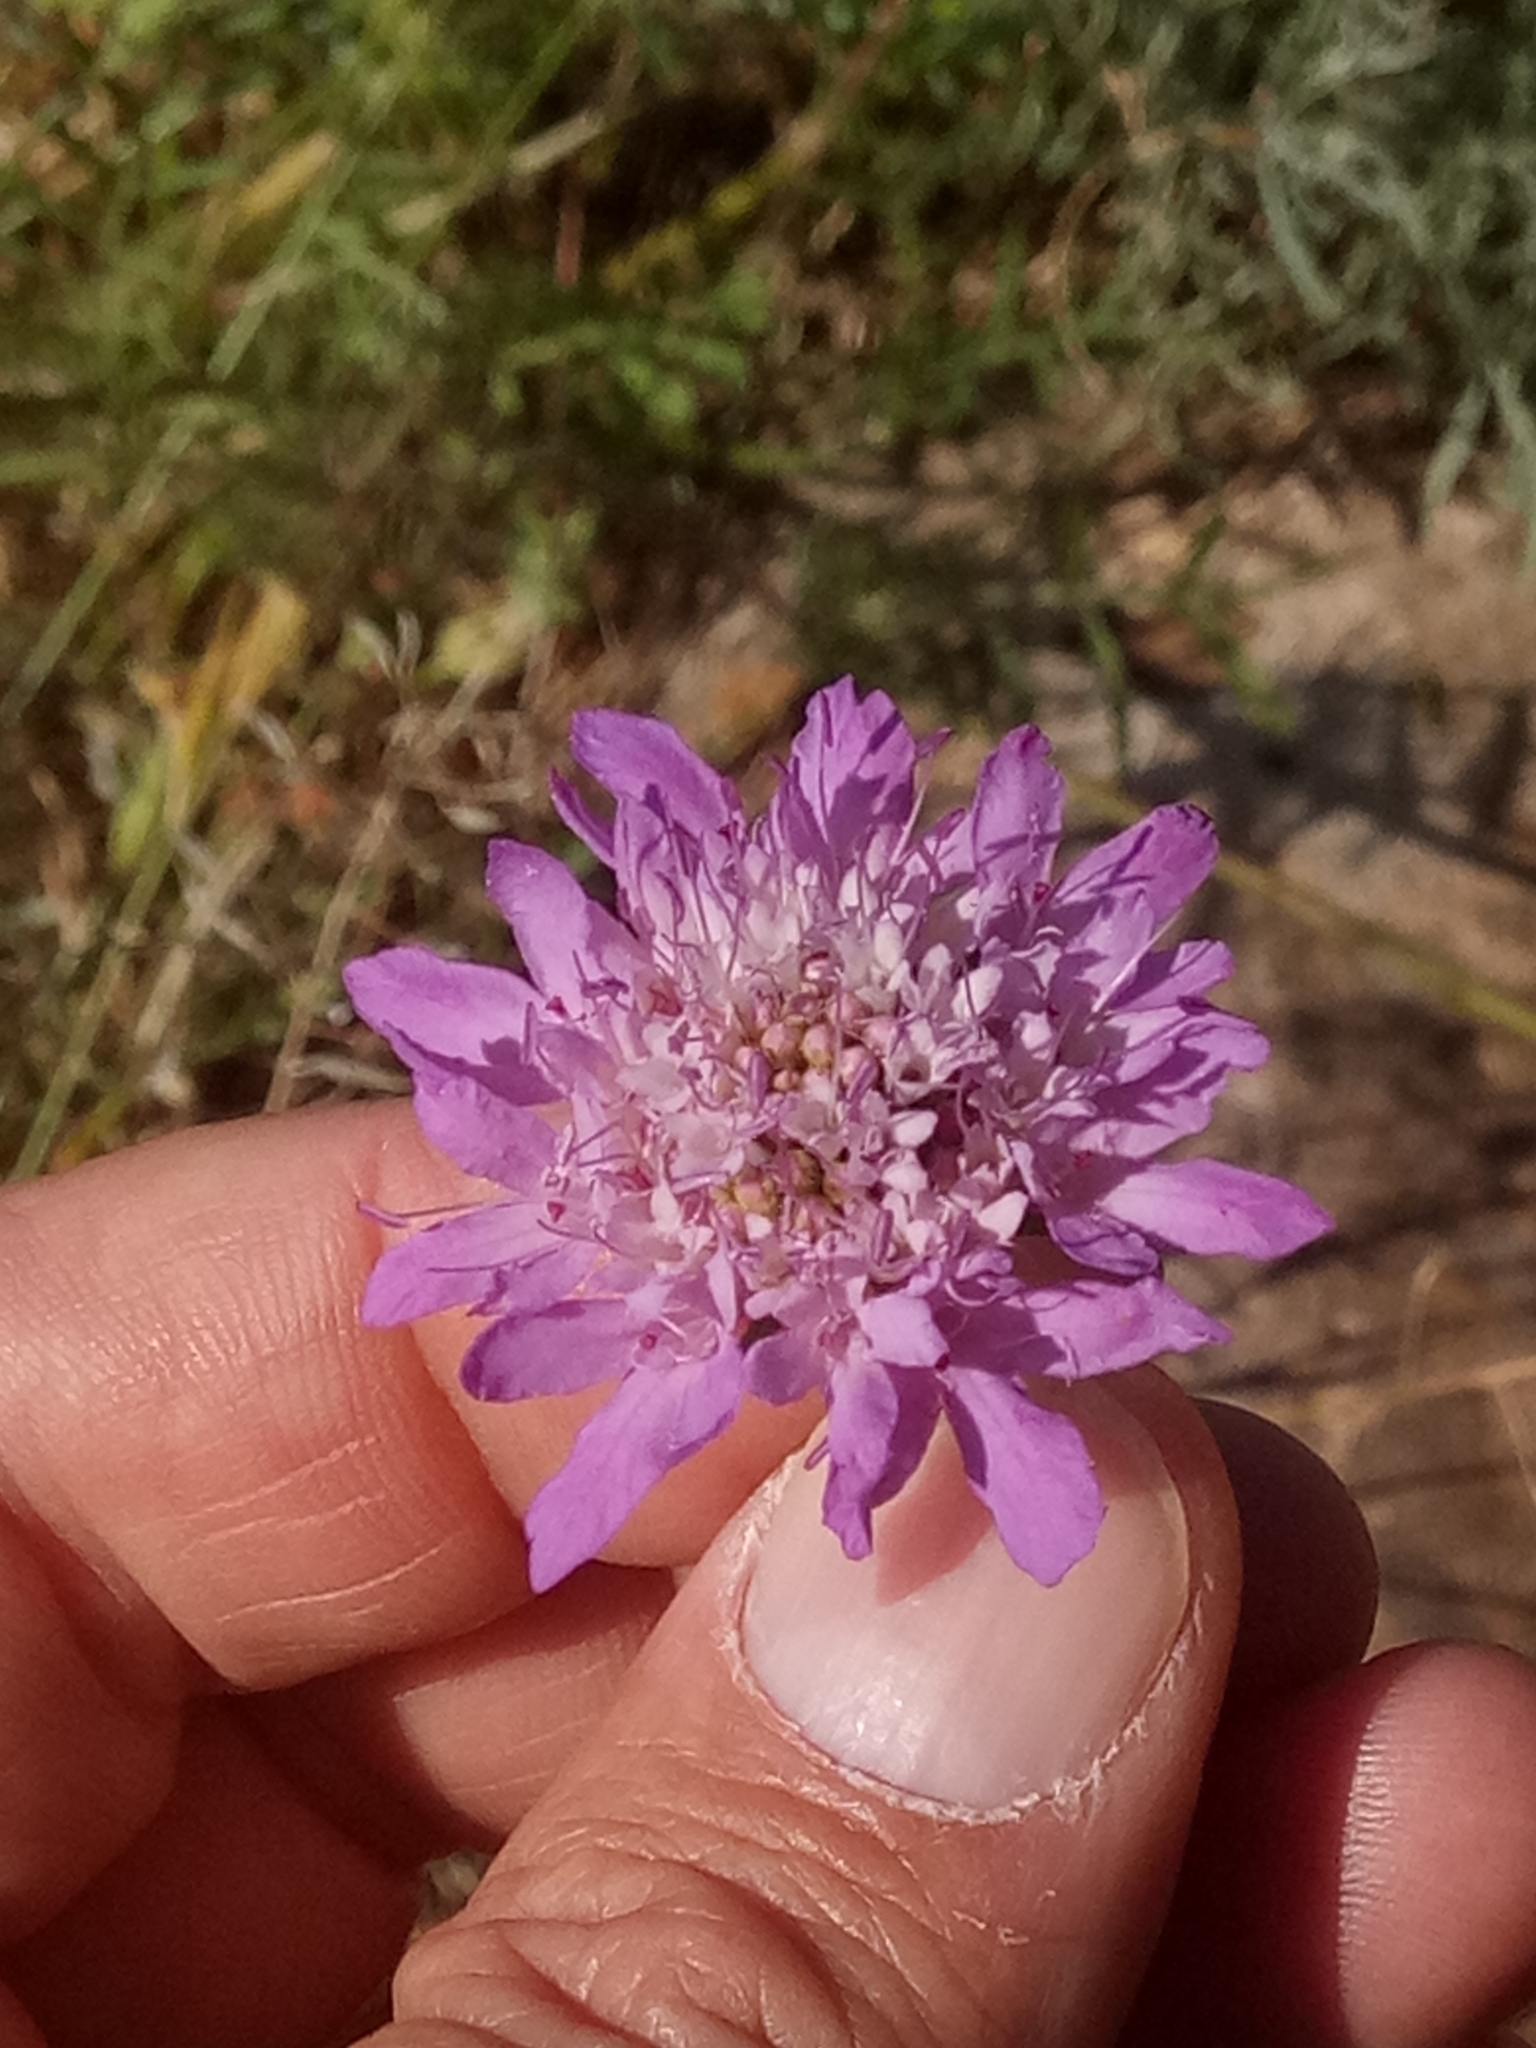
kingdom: Plantae
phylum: Tracheophyta
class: Magnoliopsida
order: Dipsacales
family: Caprifoliaceae
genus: Sixalix
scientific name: Sixalix maritima
